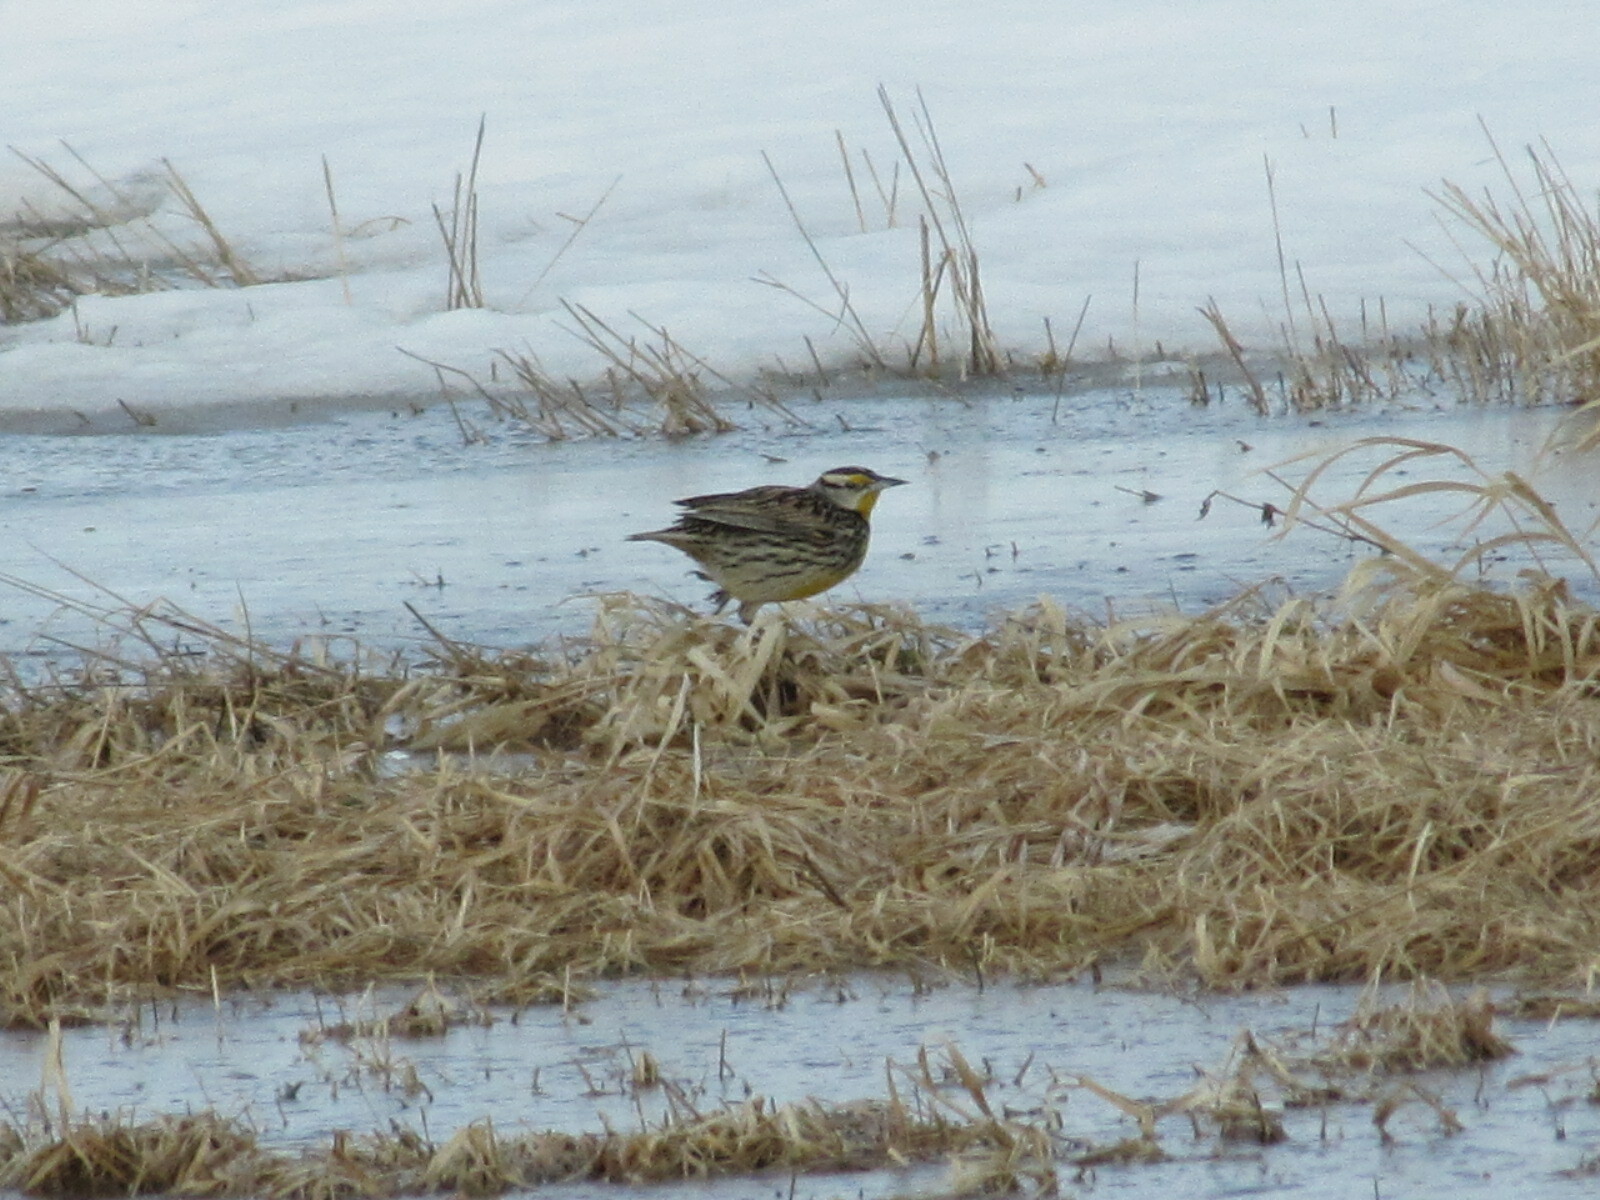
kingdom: Animalia
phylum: Chordata
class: Aves
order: Passeriformes
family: Icteridae
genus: Sturnella
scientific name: Sturnella magna
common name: Eastern meadowlark
